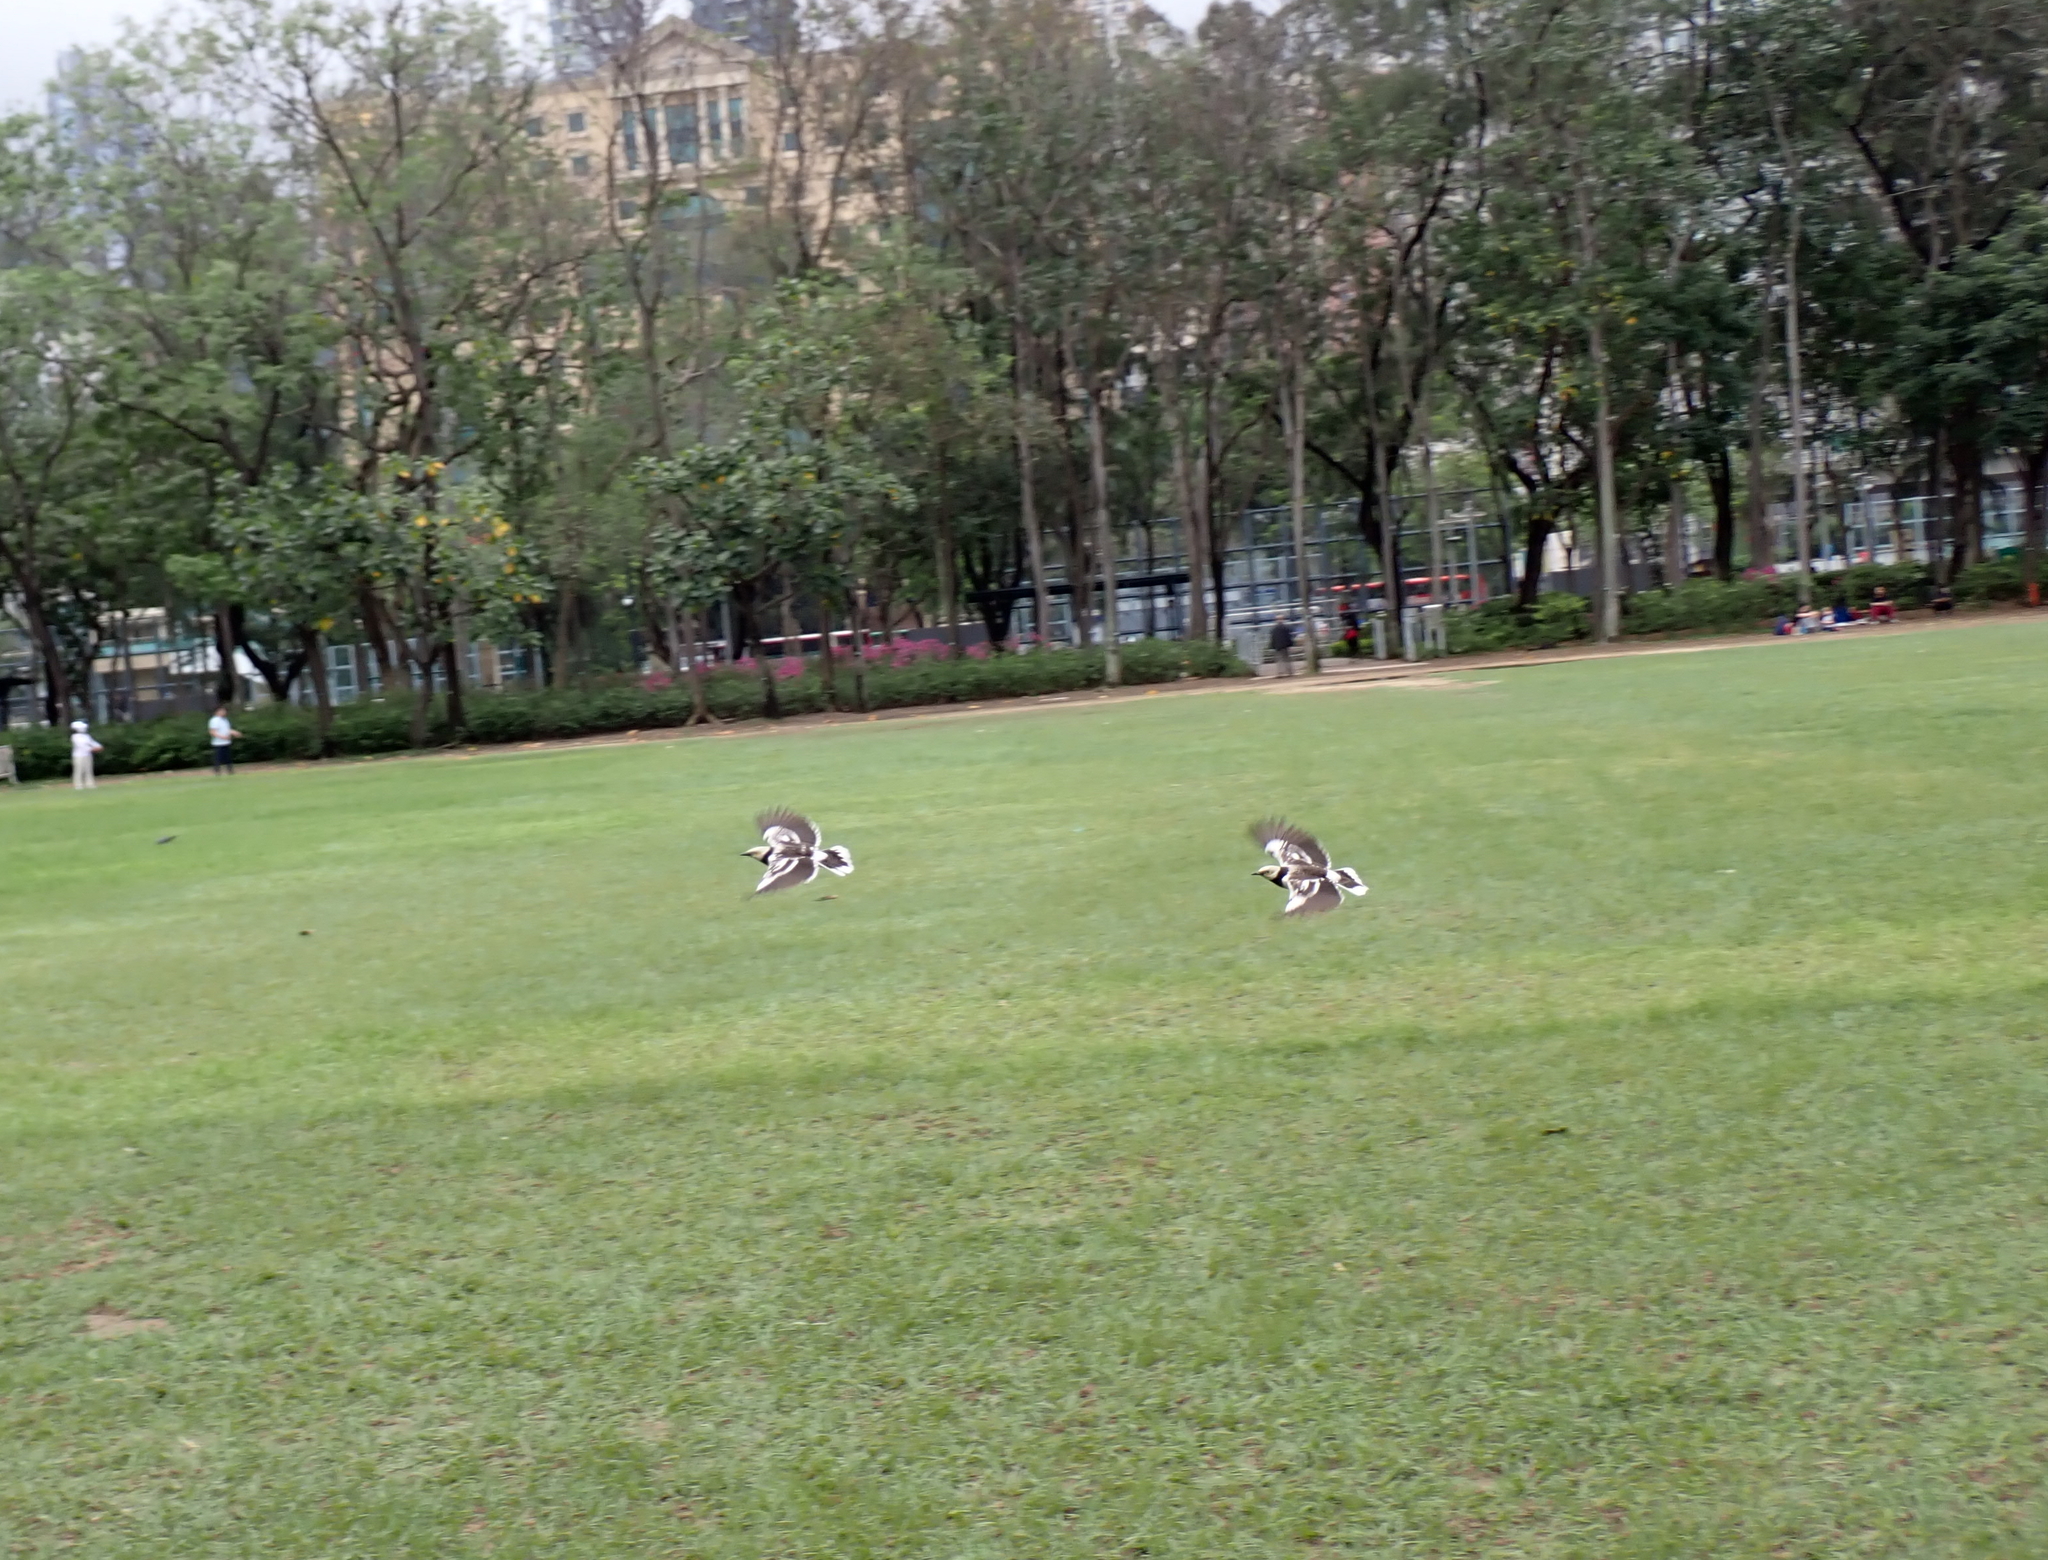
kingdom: Animalia
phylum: Chordata
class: Aves
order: Passeriformes
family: Sturnidae
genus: Gracupica
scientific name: Gracupica nigricollis
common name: Black-collared starling
